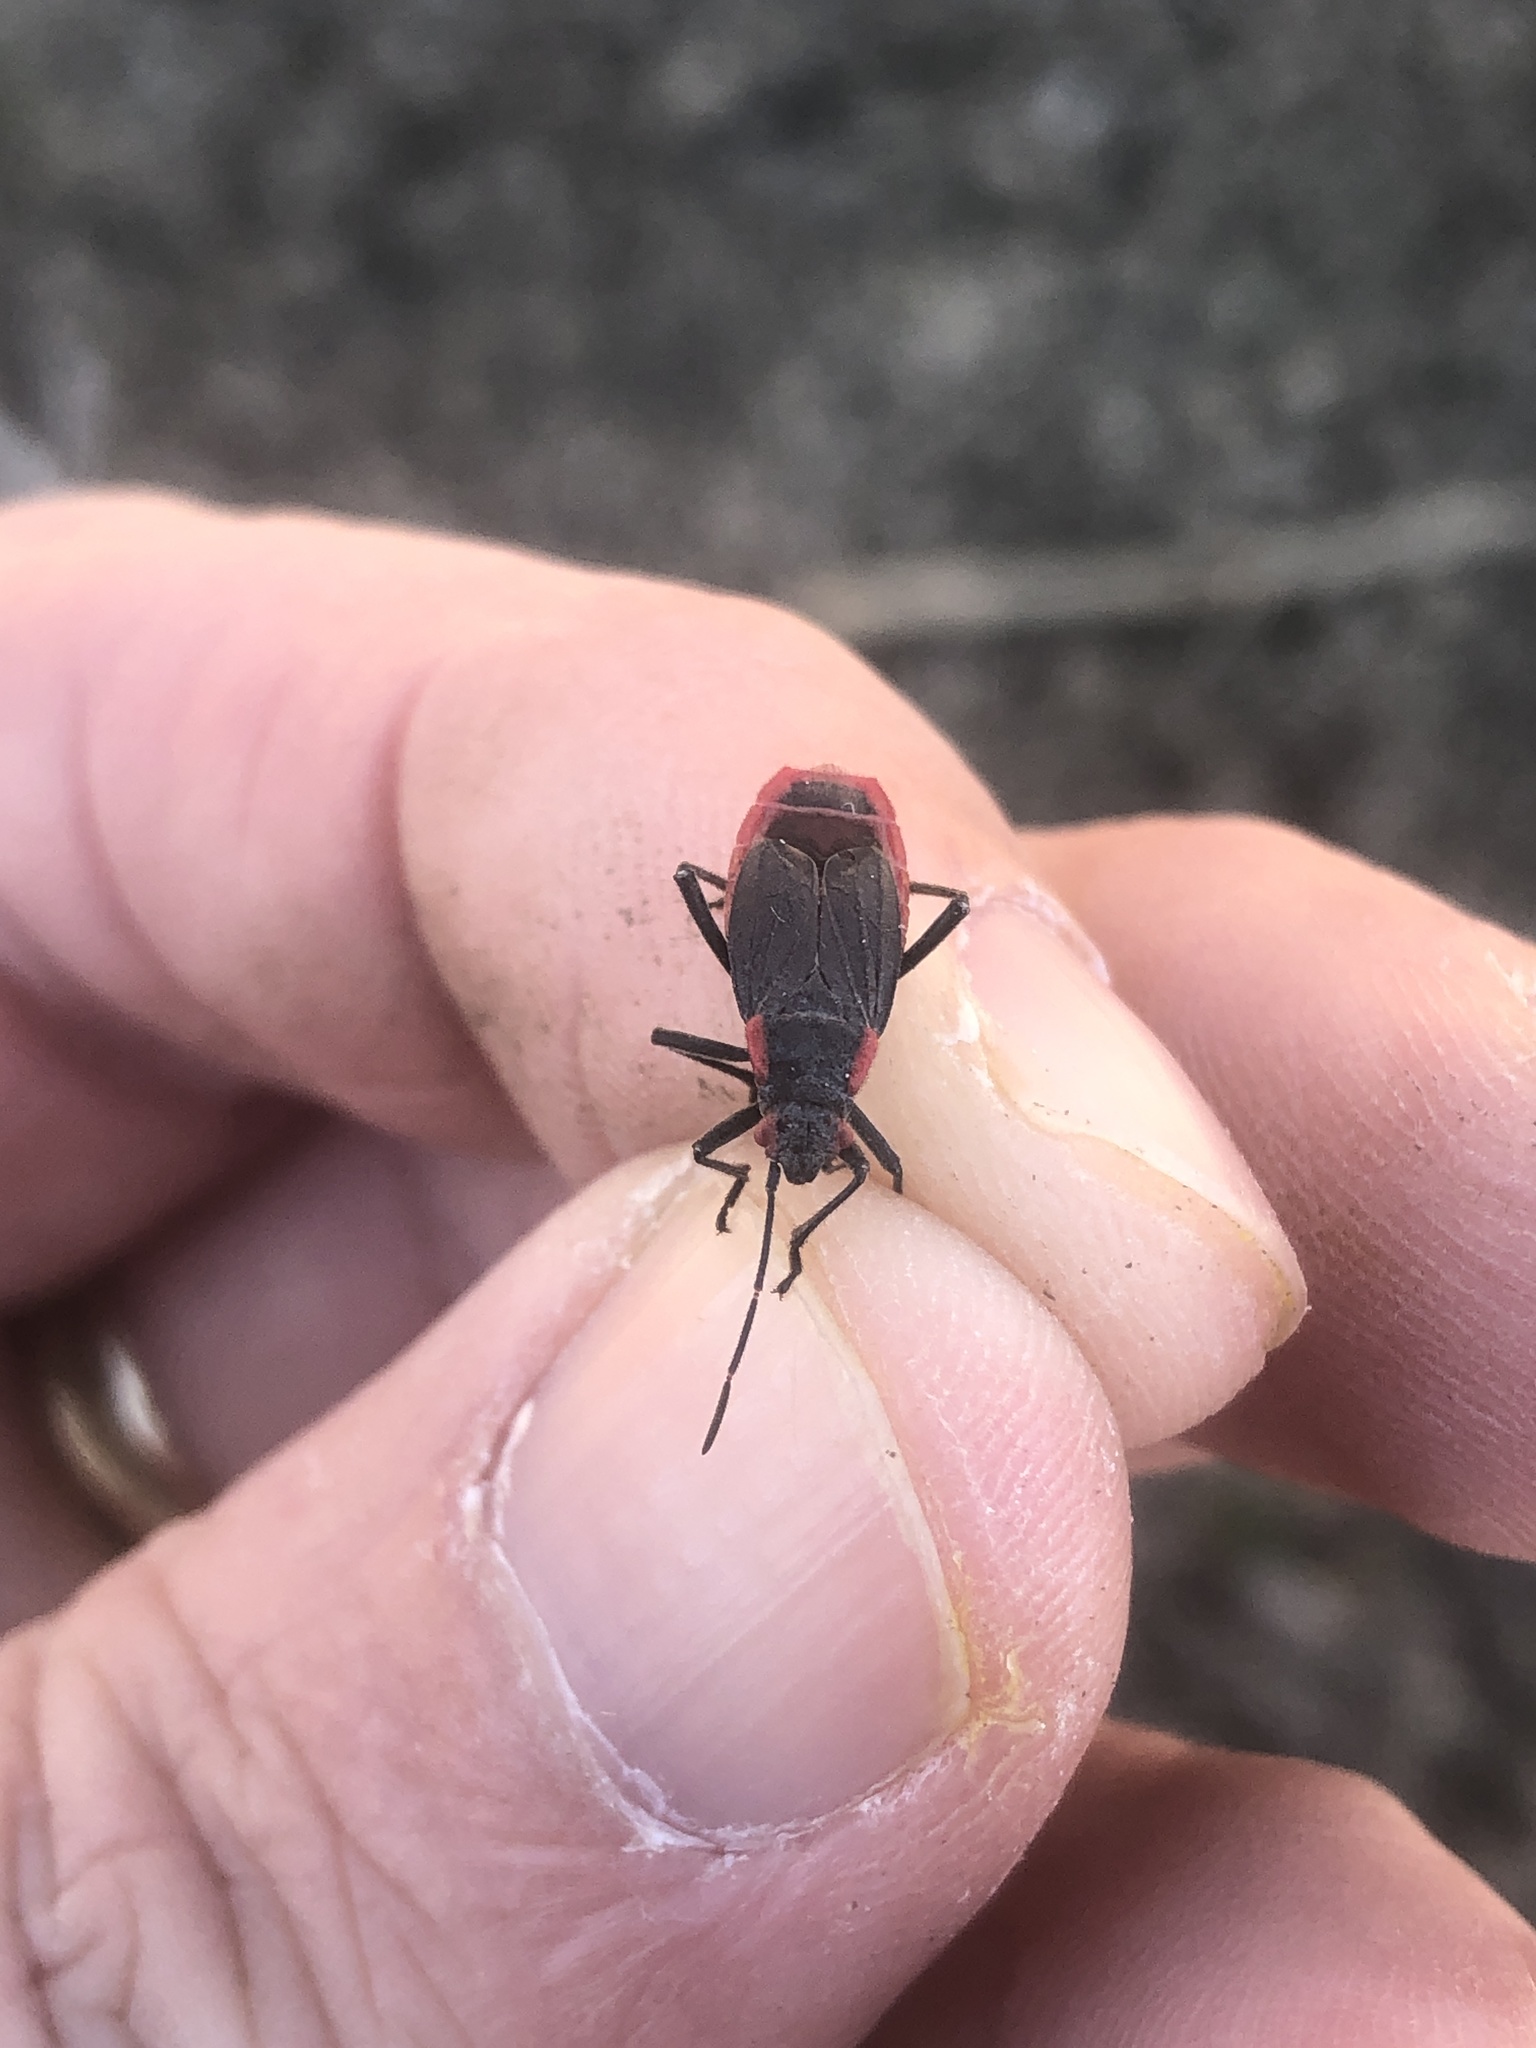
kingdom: Animalia
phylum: Arthropoda
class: Insecta
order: Hemiptera
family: Rhopalidae
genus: Jadera
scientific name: Jadera haematoloma
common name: Red-shouldered bug
